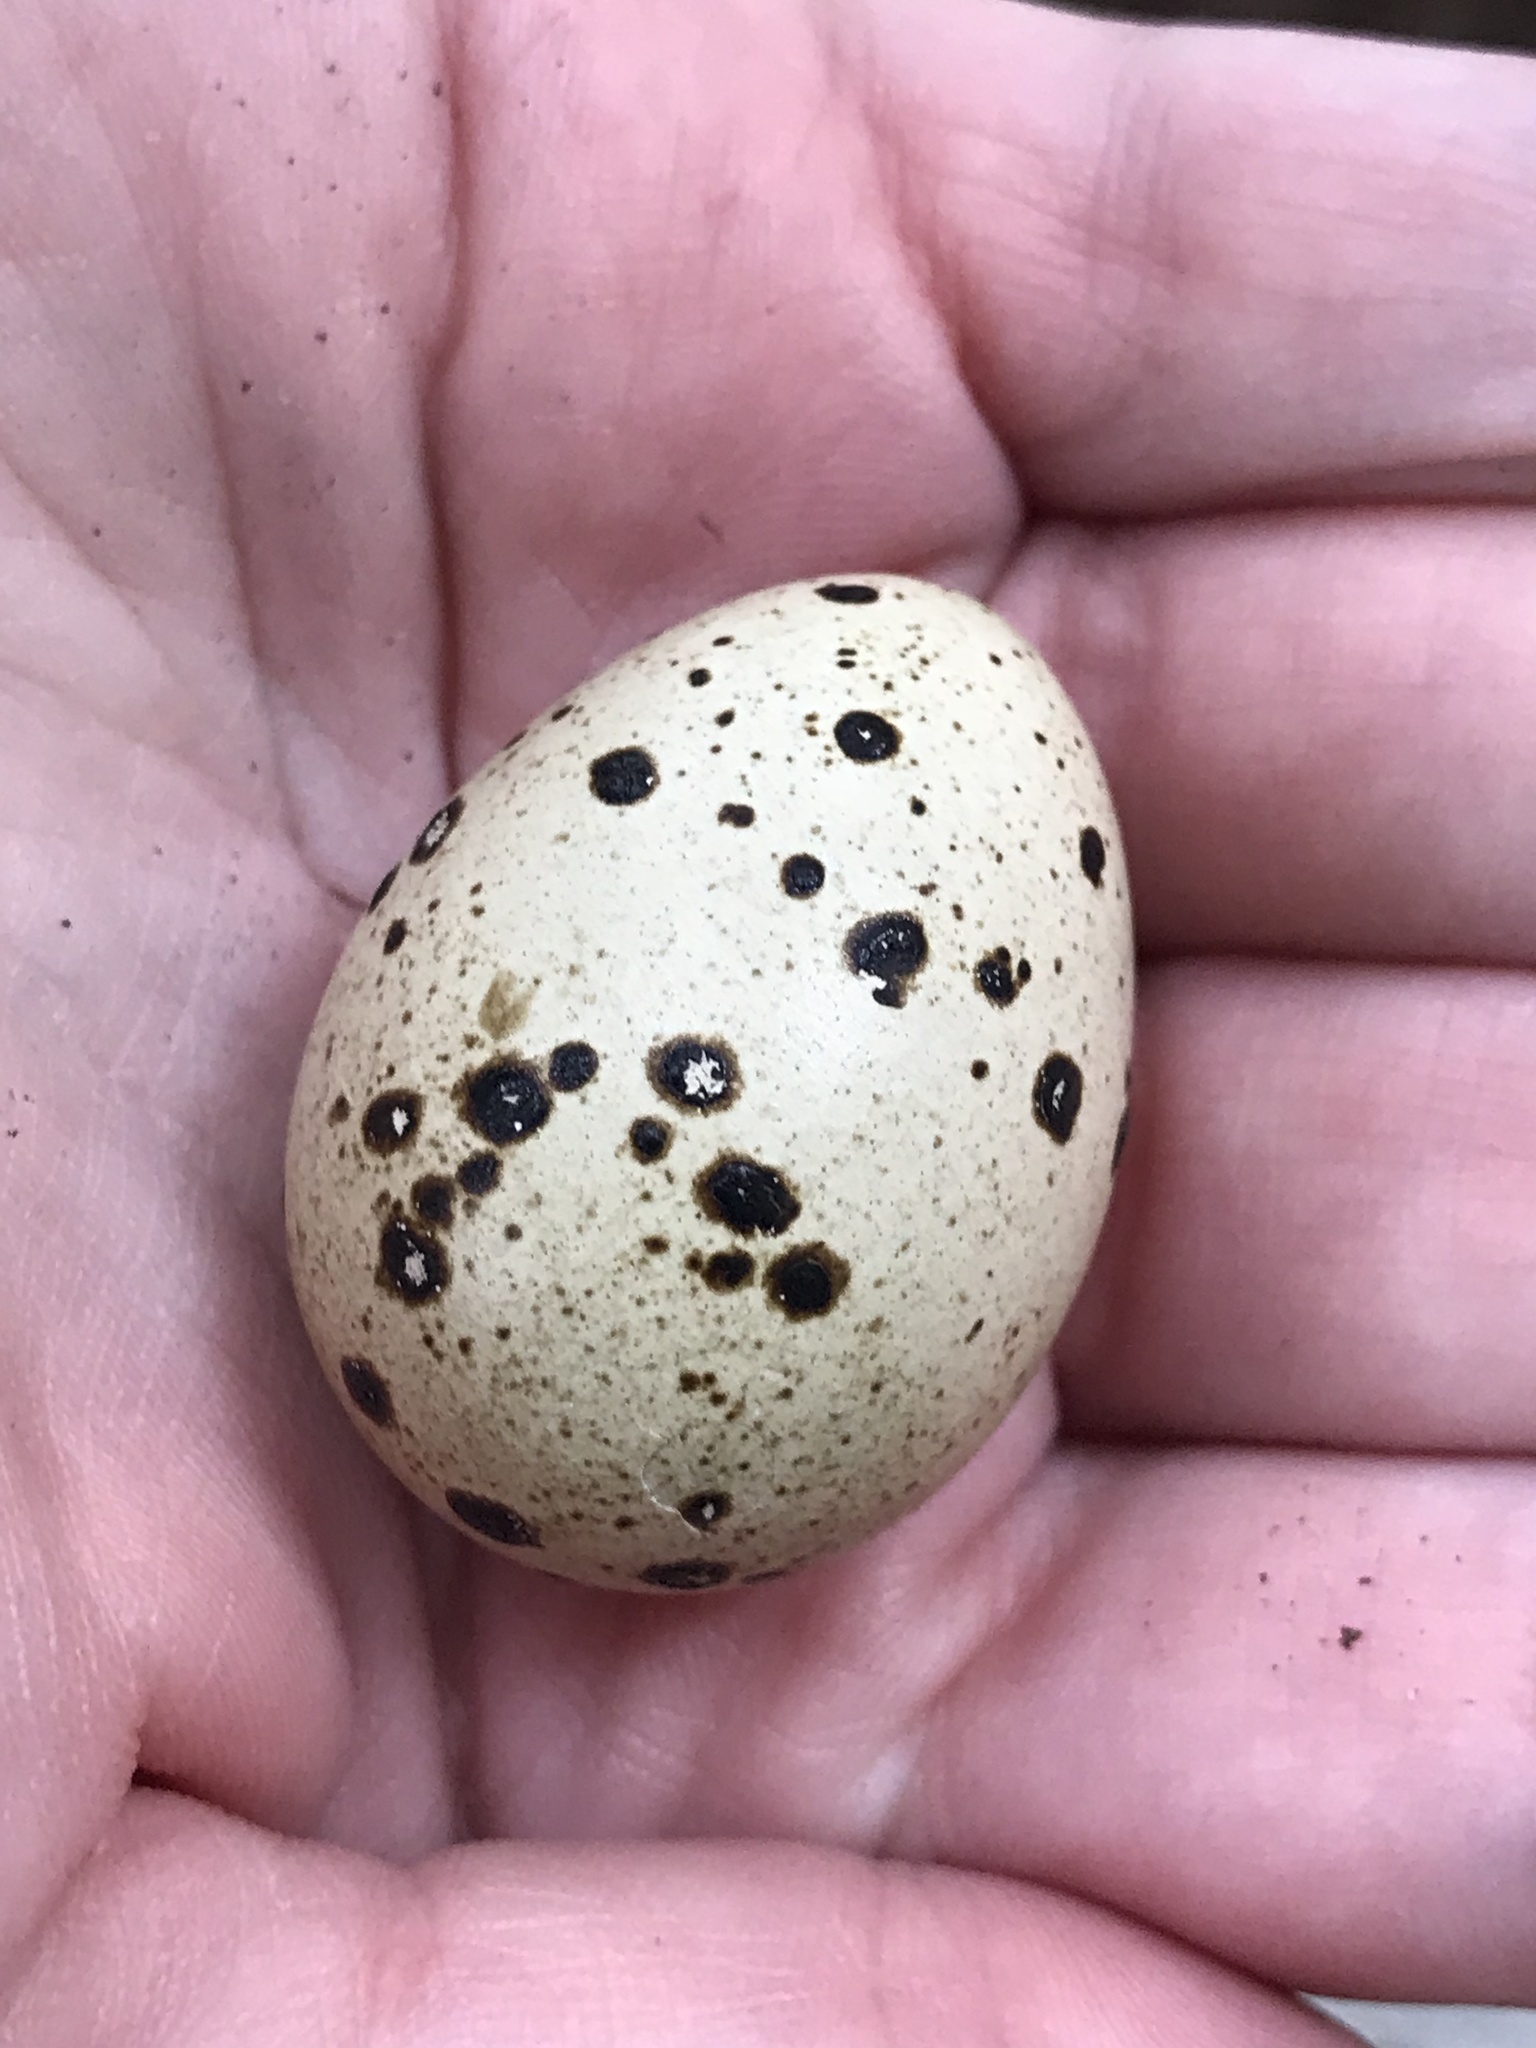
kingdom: Animalia
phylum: Chordata
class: Aves
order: Charadriiformes
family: Charadriidae
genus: Charadrius
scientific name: Charadrius vociferus
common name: Killdeer
